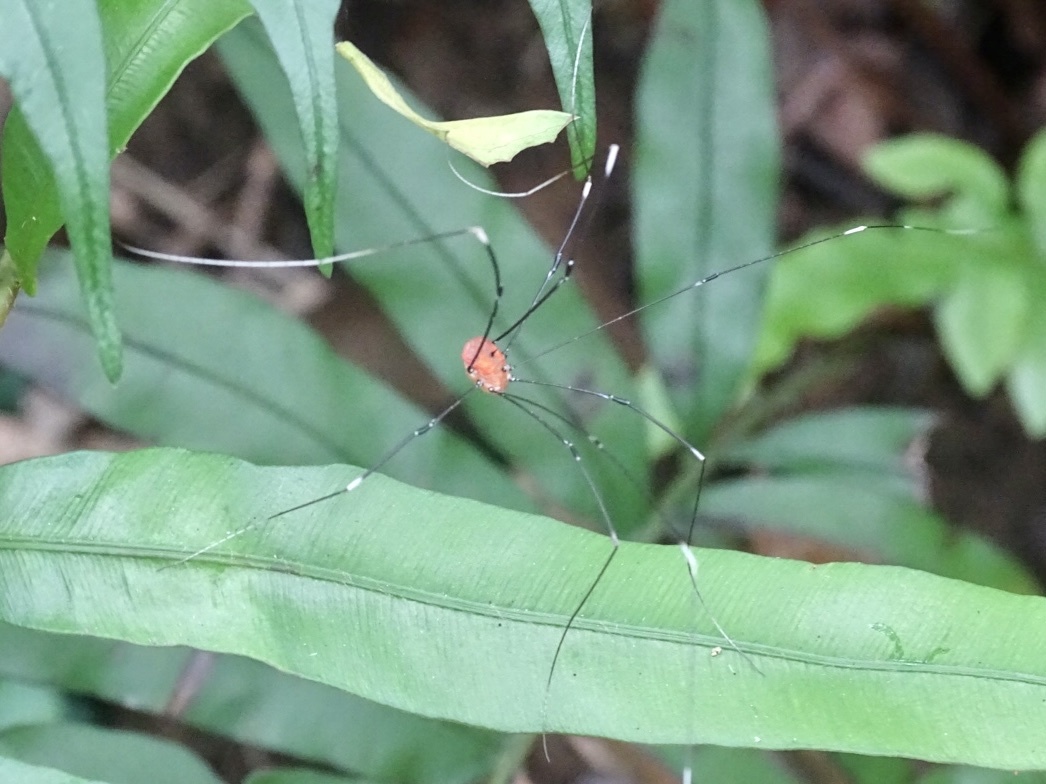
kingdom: Animalia
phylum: Arthropoda
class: Arachnida
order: Opiliones
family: Sclerosomatidae
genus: Pseudogagrella
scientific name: Pseudogagrella splendens
